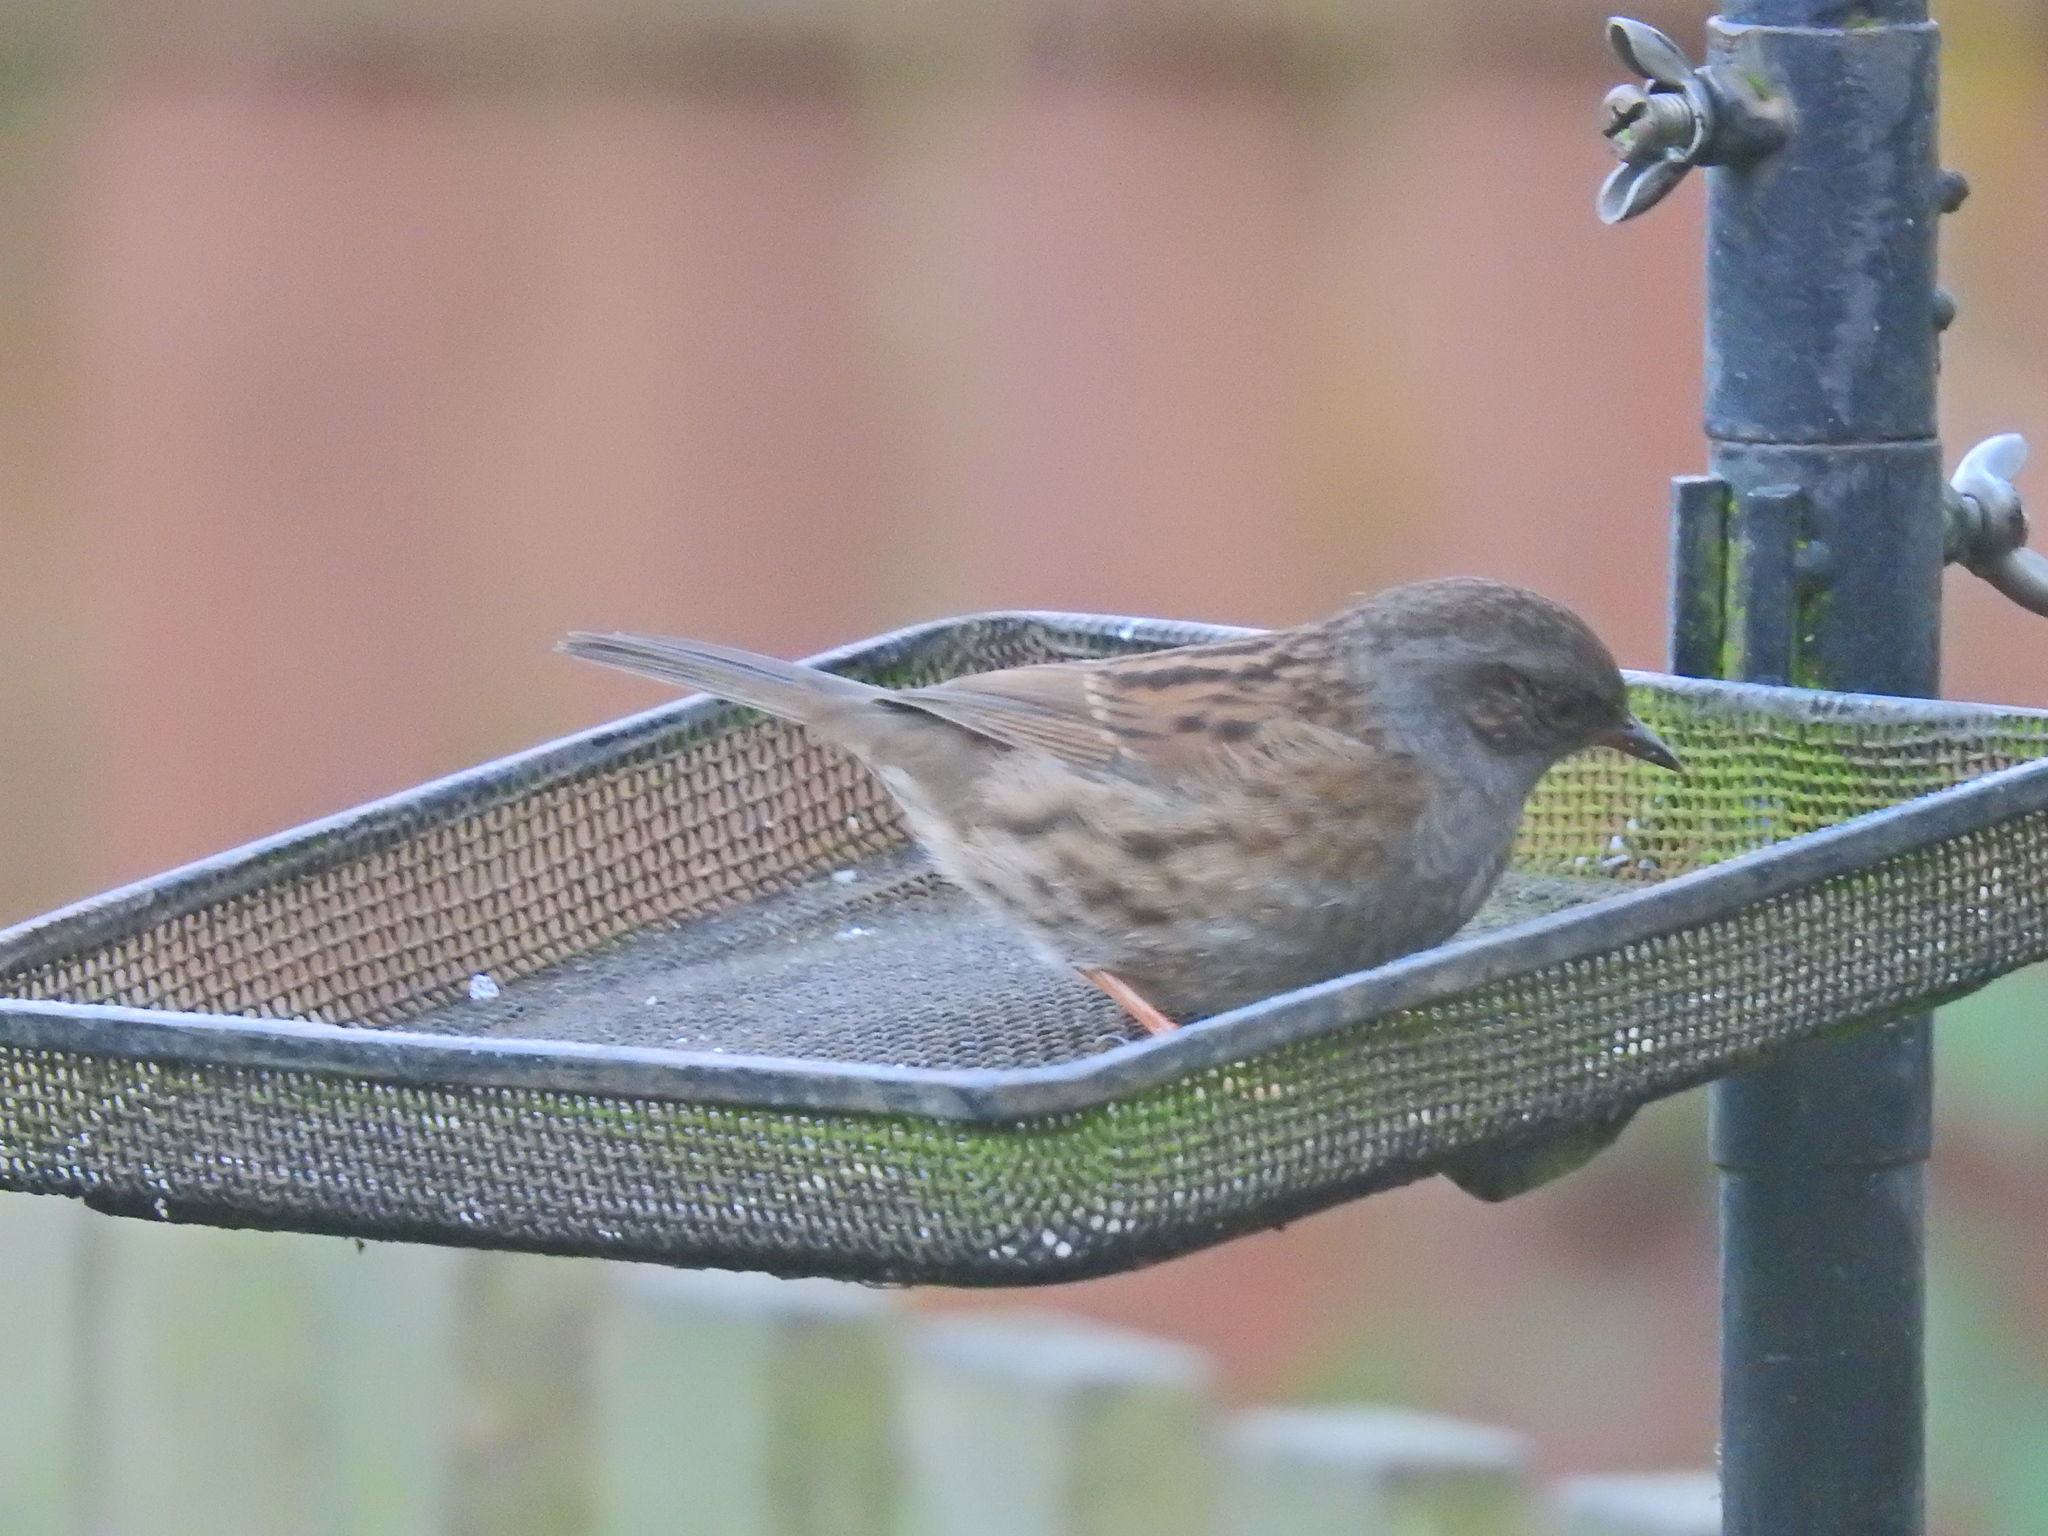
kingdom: Animalia
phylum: Chordata
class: Aves
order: Passeriformes
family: Prunellidae
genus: Prunella
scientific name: Prunella modularis
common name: Dunnock
